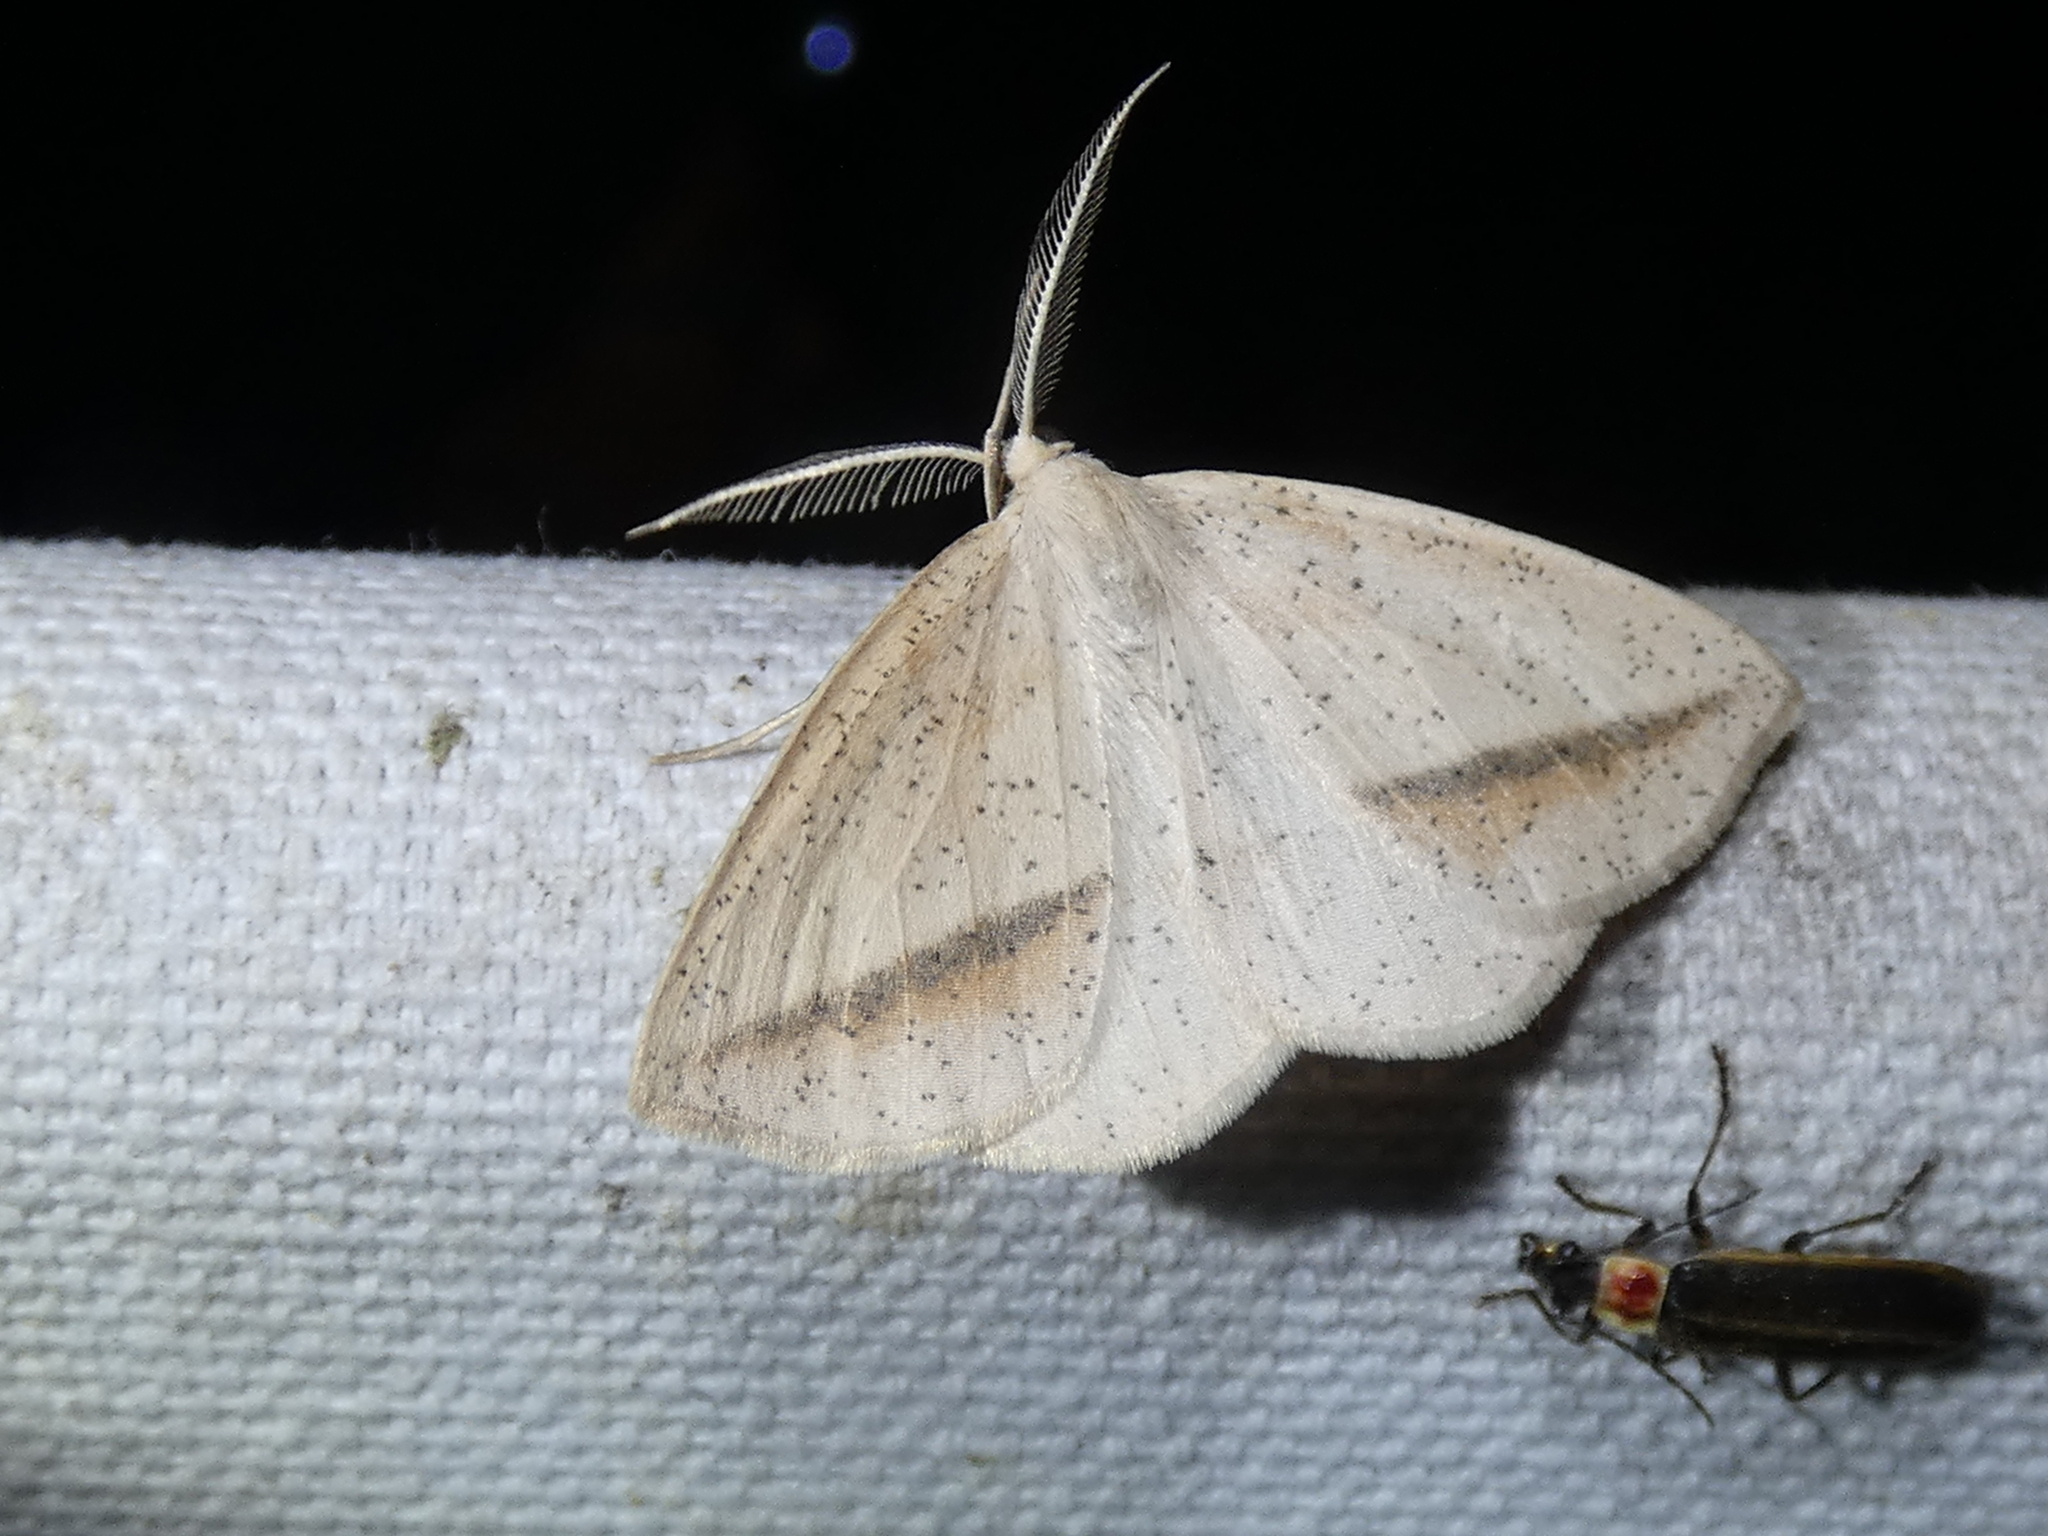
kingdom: Animalia
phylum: Arthropoda
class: Insecta
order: Lepidoptera
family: Geometridae
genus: Lychnosea
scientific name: Lychnosea intermicata
